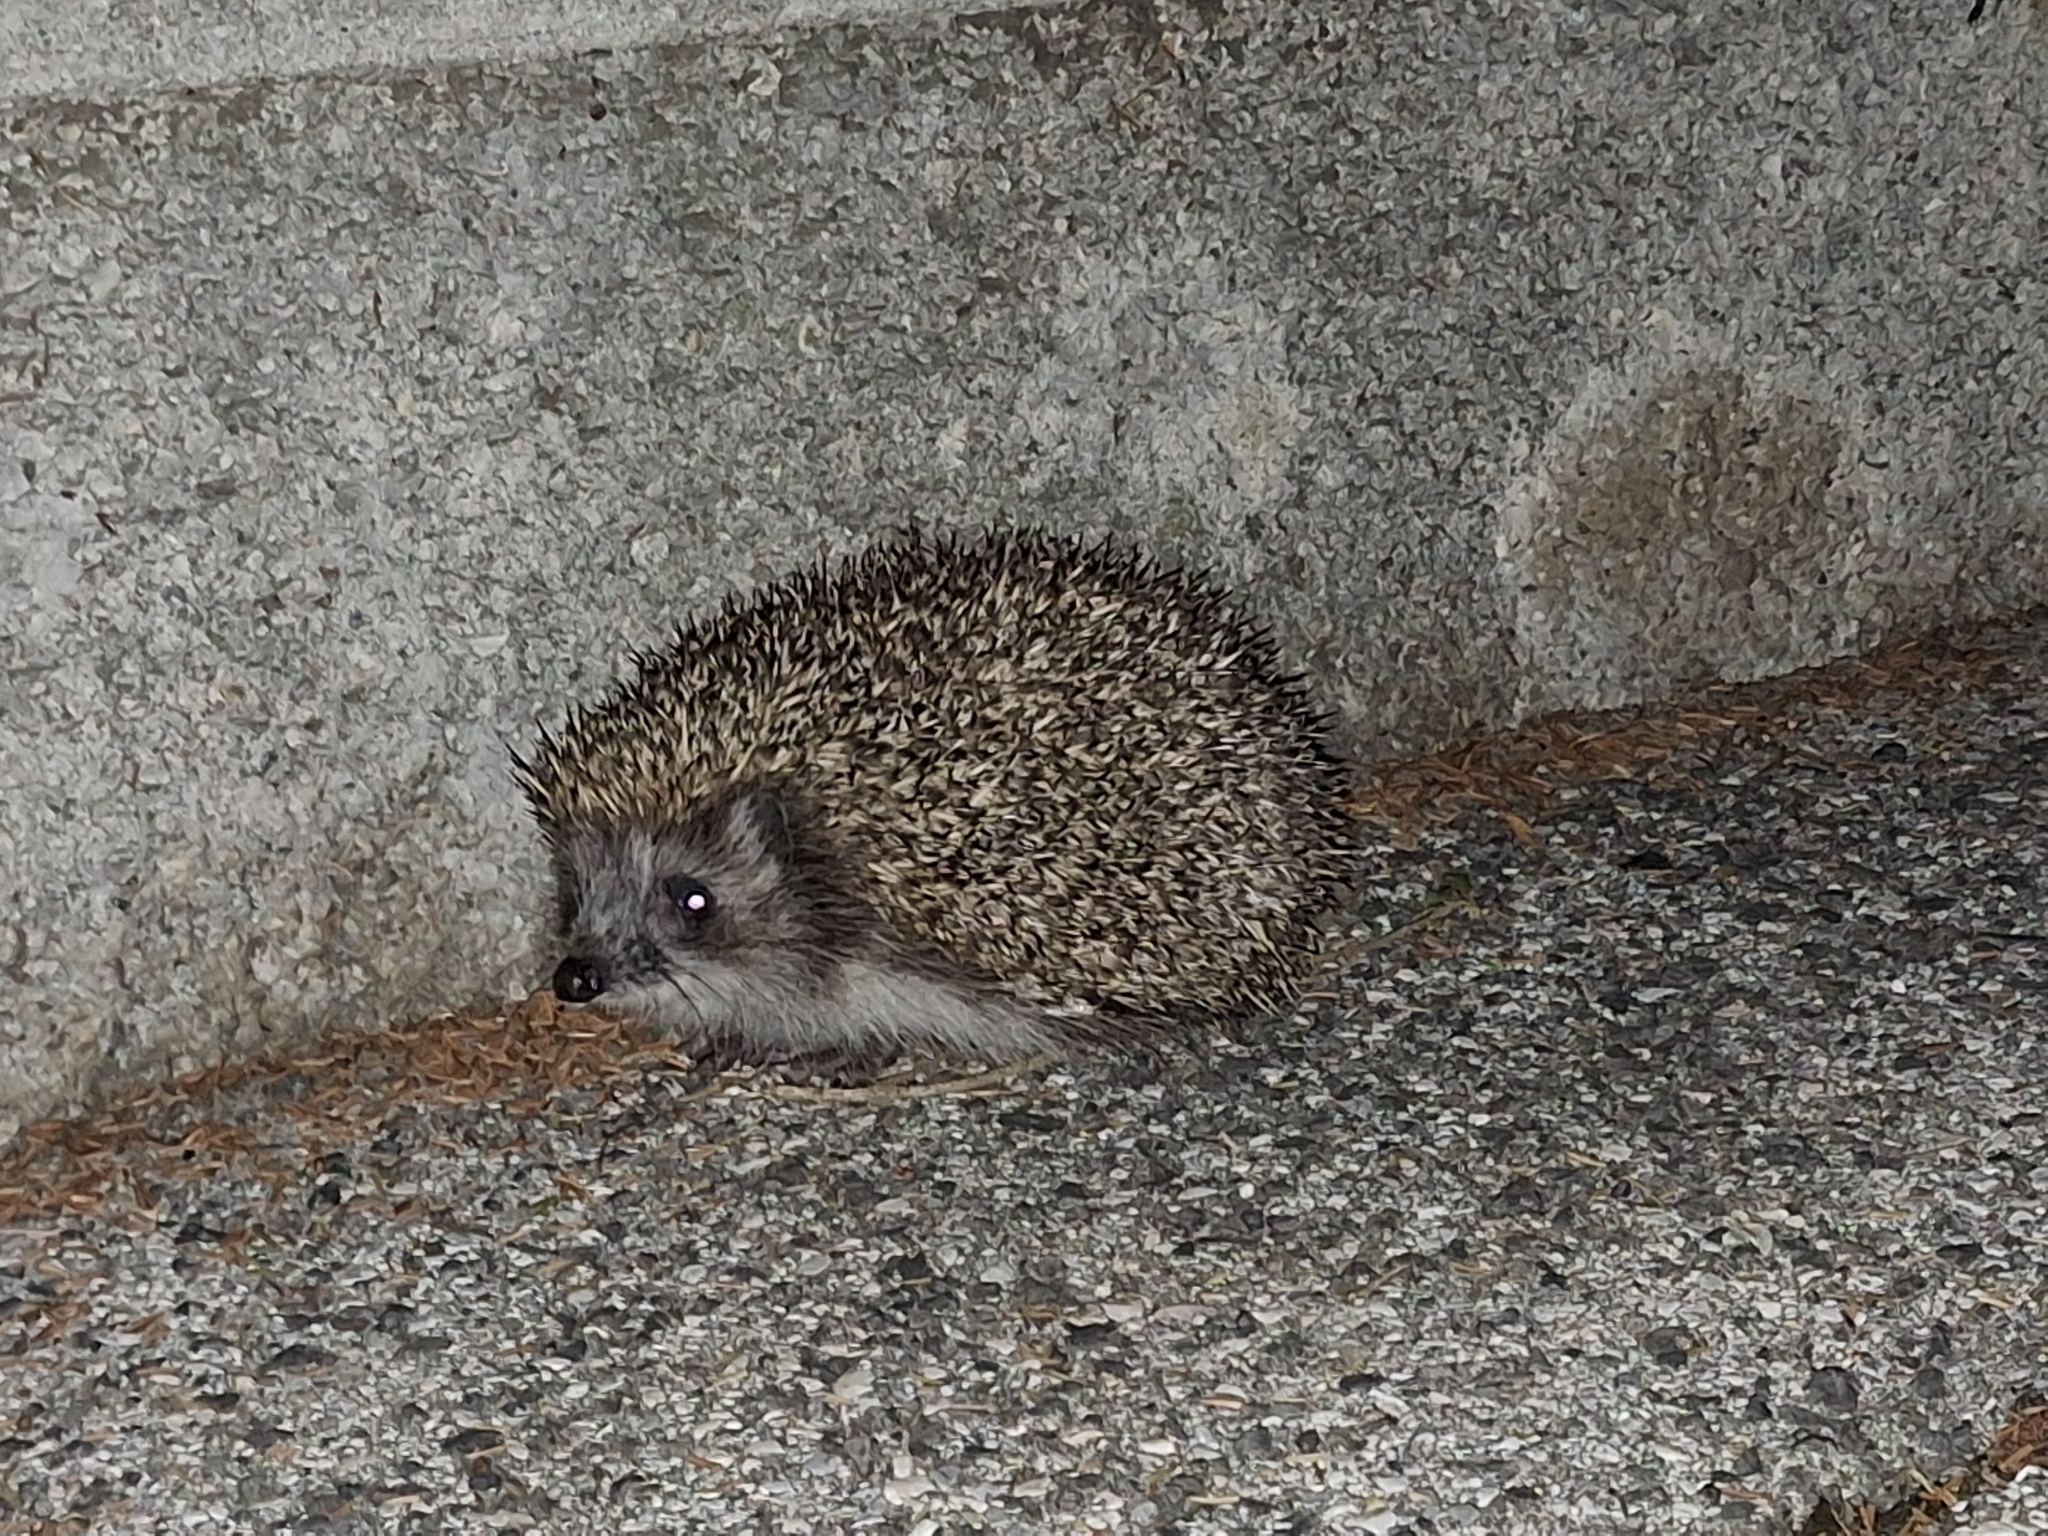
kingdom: Animalia
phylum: Chordata
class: Mammalia
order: Erinaceomorpha
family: Erinaceidae
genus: Erinaceus
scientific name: Erinaceus roumanicus
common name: Northern white-breasted hedgehog
